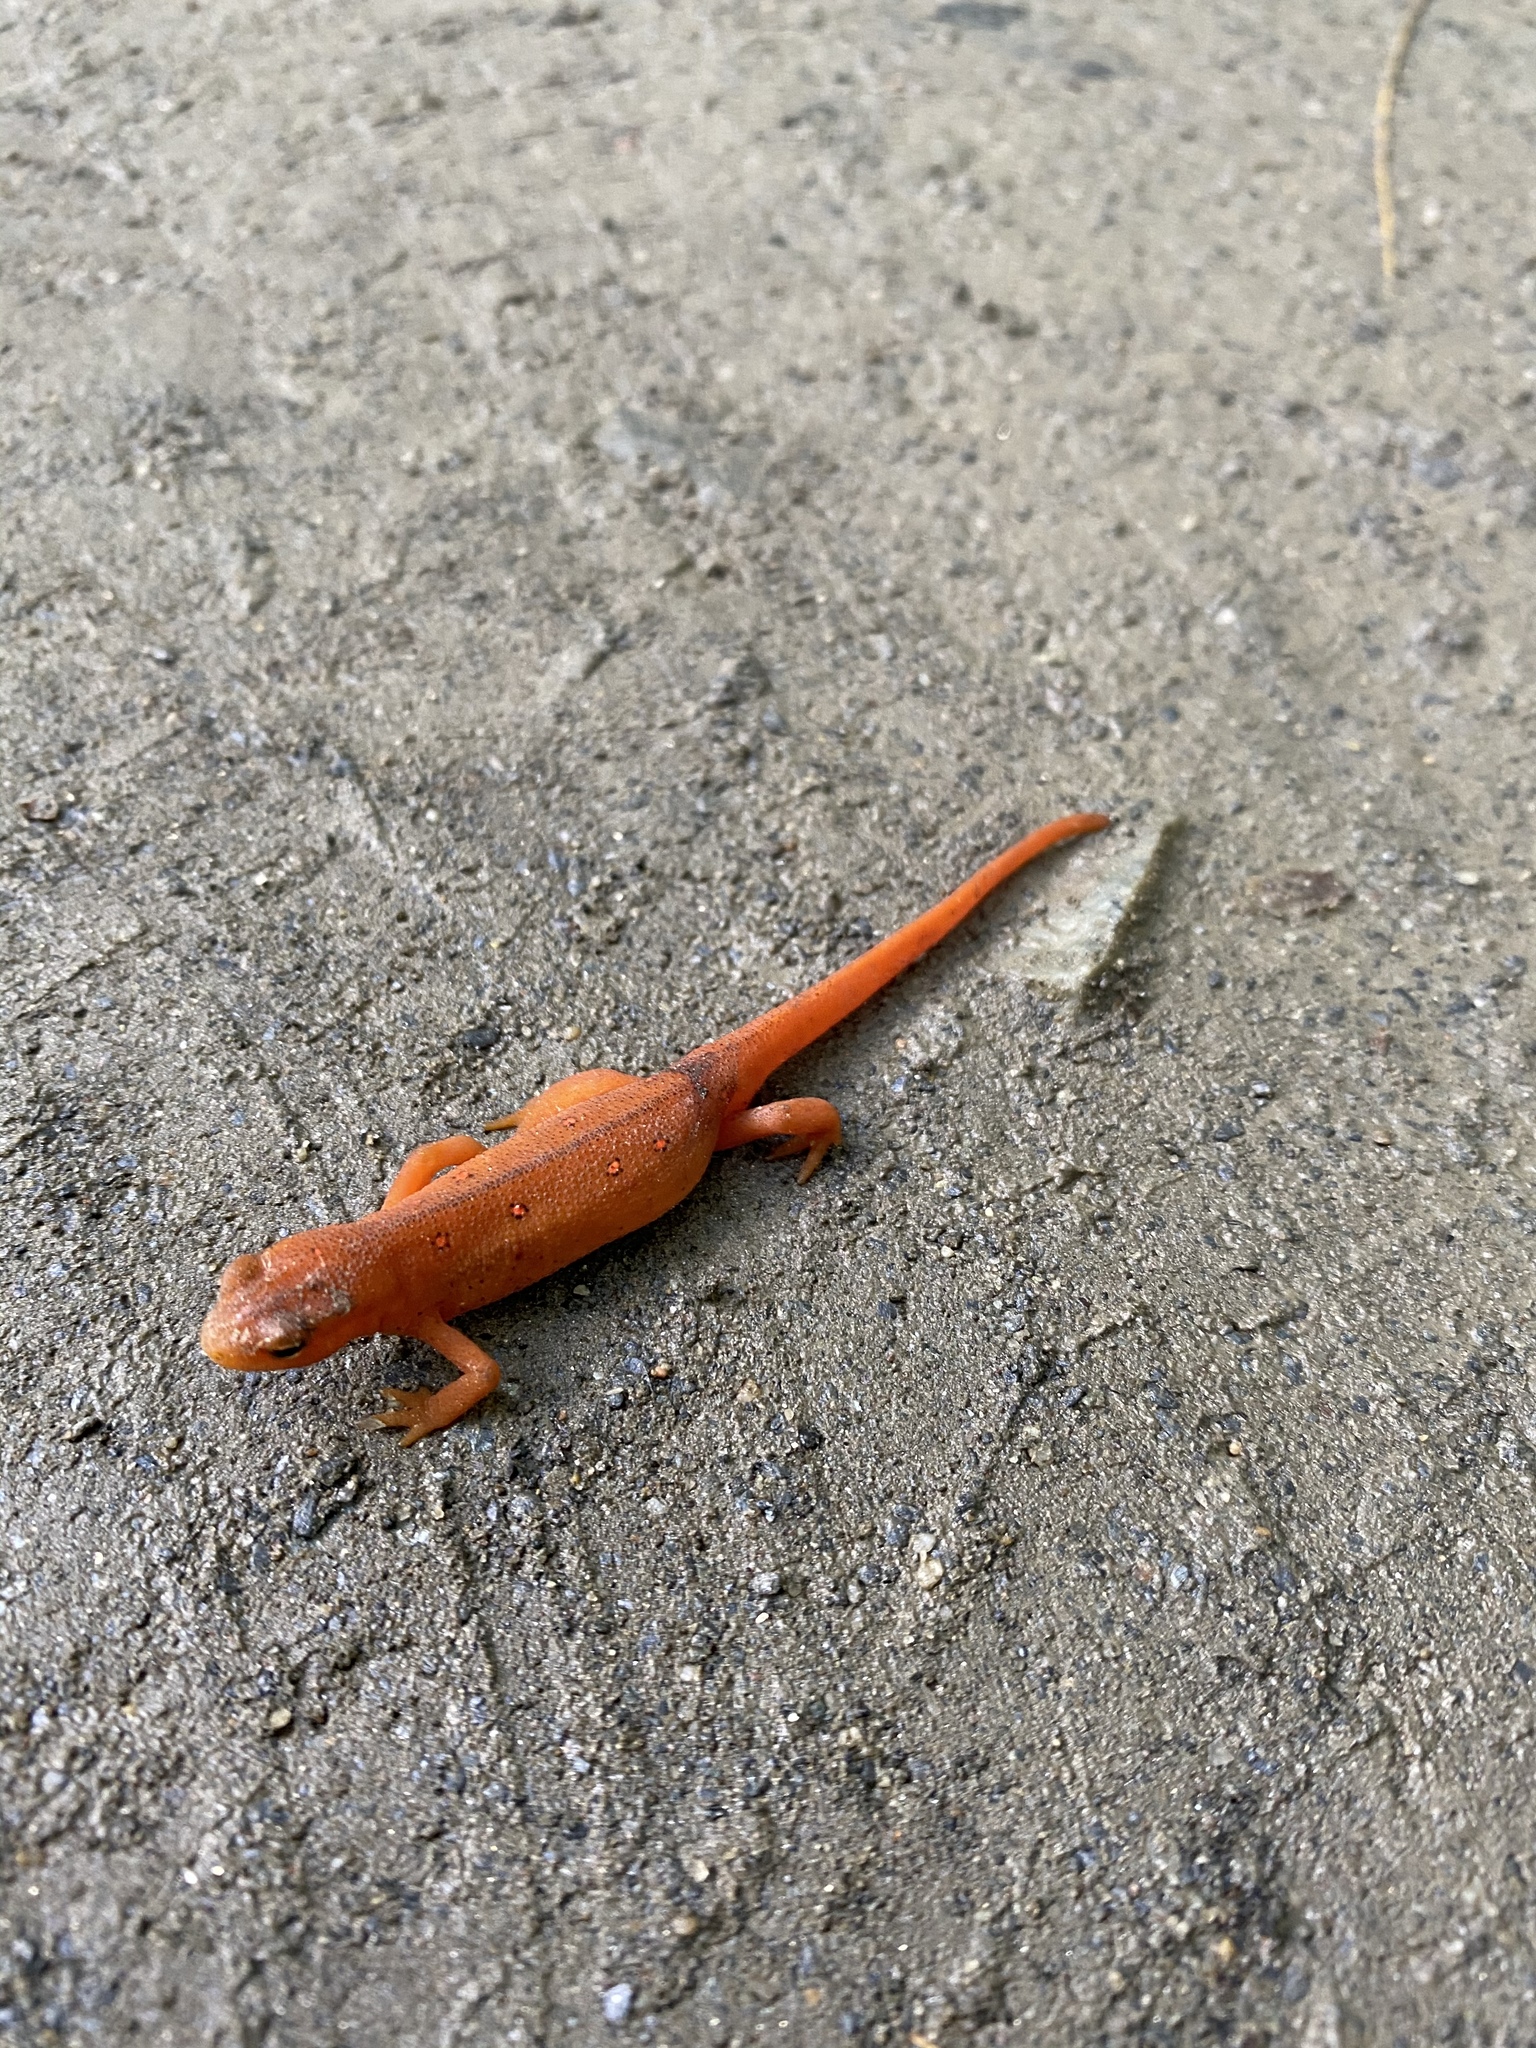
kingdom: Animalia
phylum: Chordata
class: Amphibia
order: Caudata
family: Salamandridae
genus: Notophthalmus
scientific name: Notophthalmus viridescens
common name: Eastern newt
